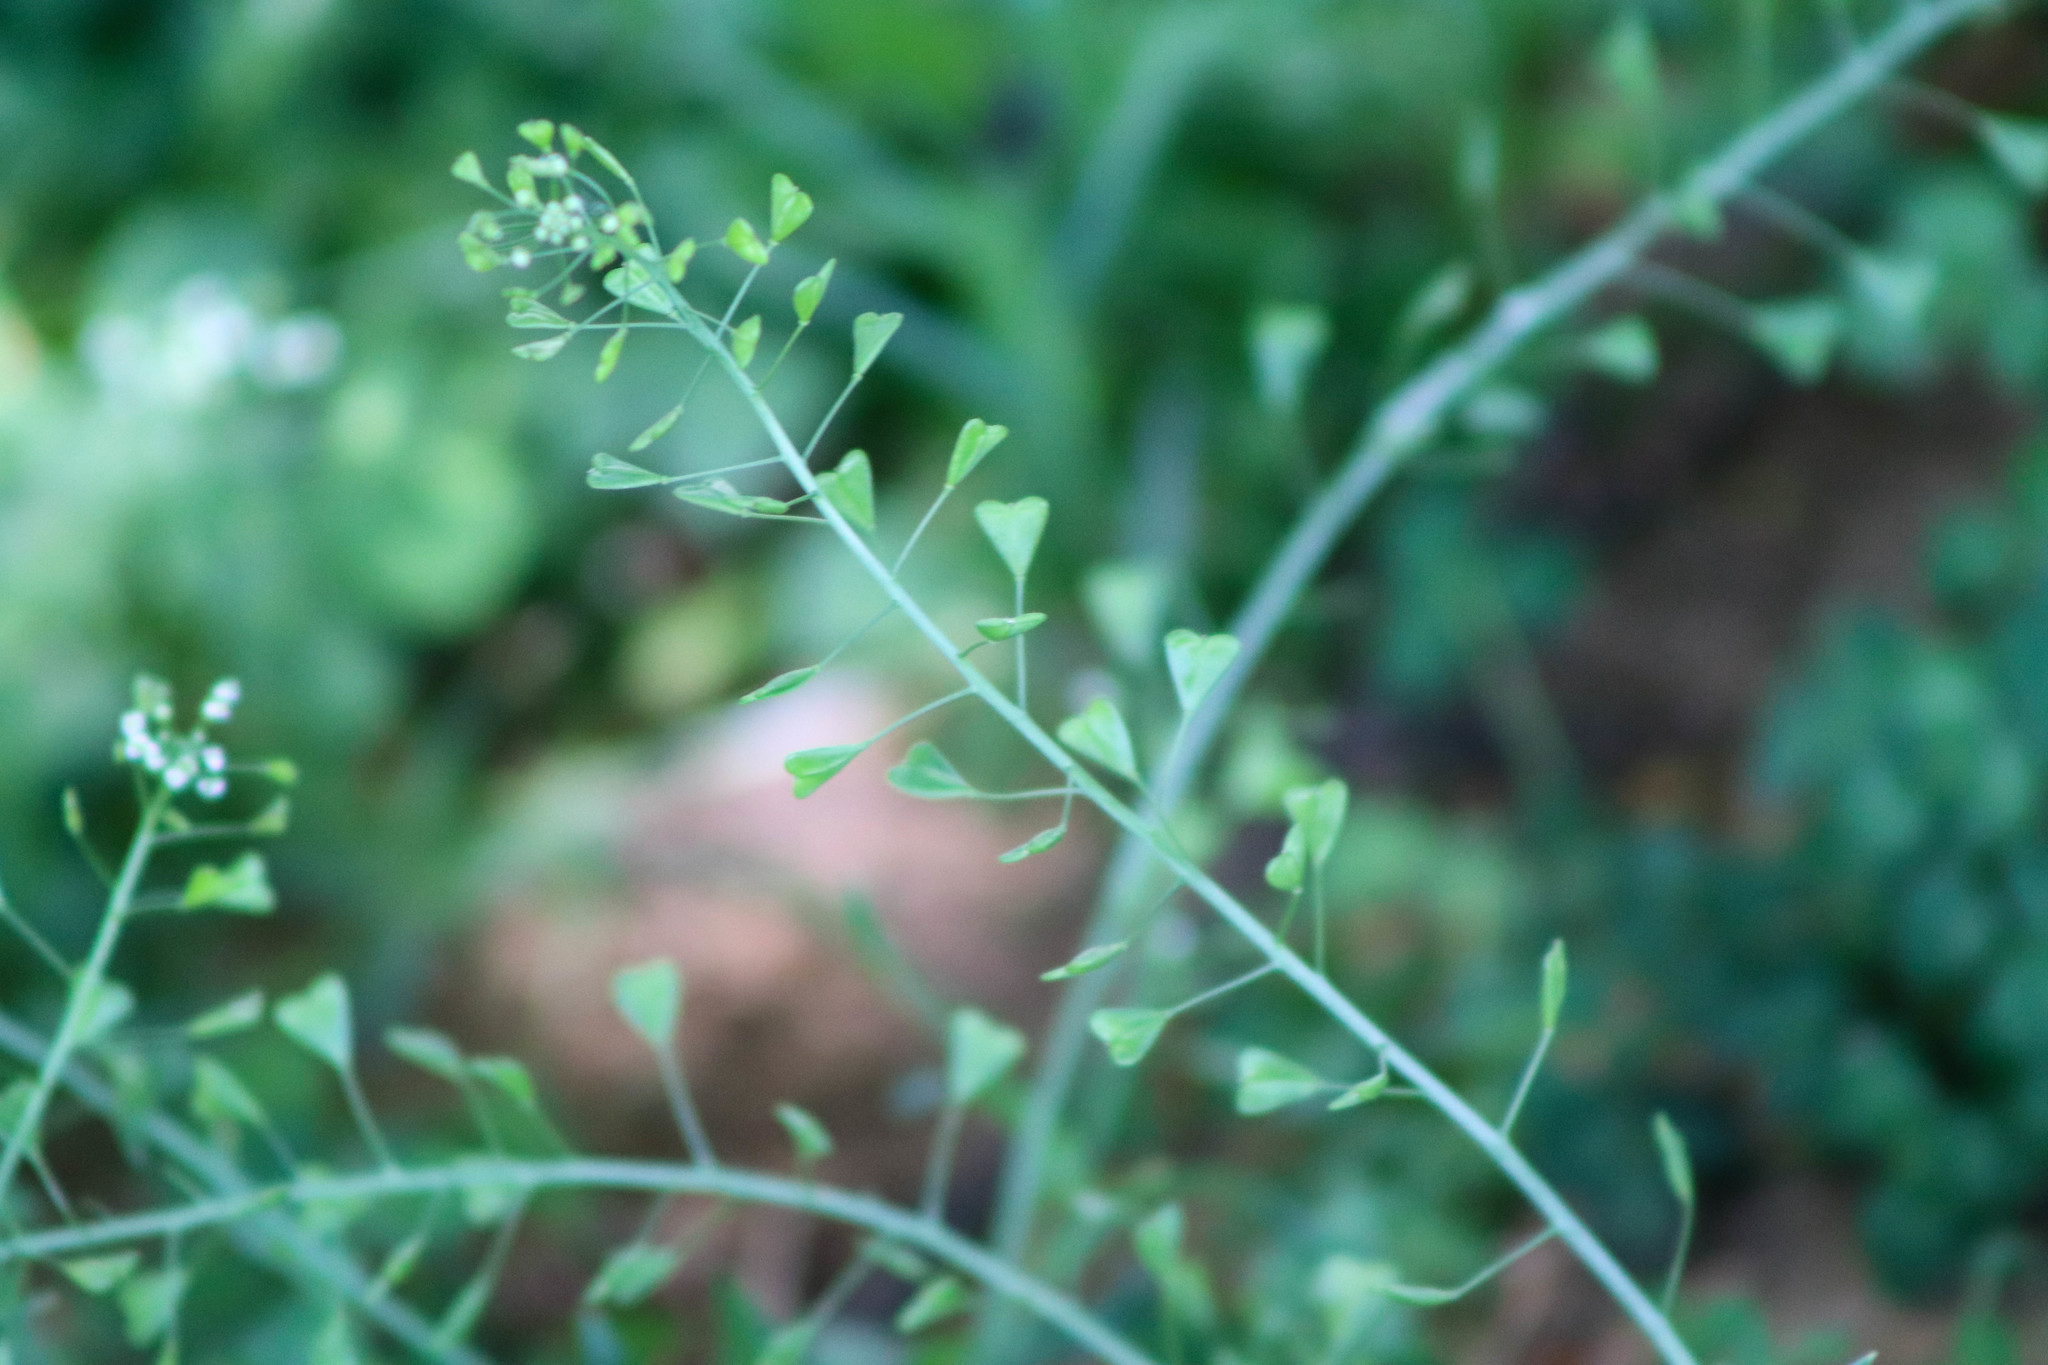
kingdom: Plantae
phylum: Tracheophyta
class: Magnoliopsida
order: Brassicales
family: Brassicaceae
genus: Capsella
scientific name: Capsella bursa-pastoris
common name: Shepherd's purse
